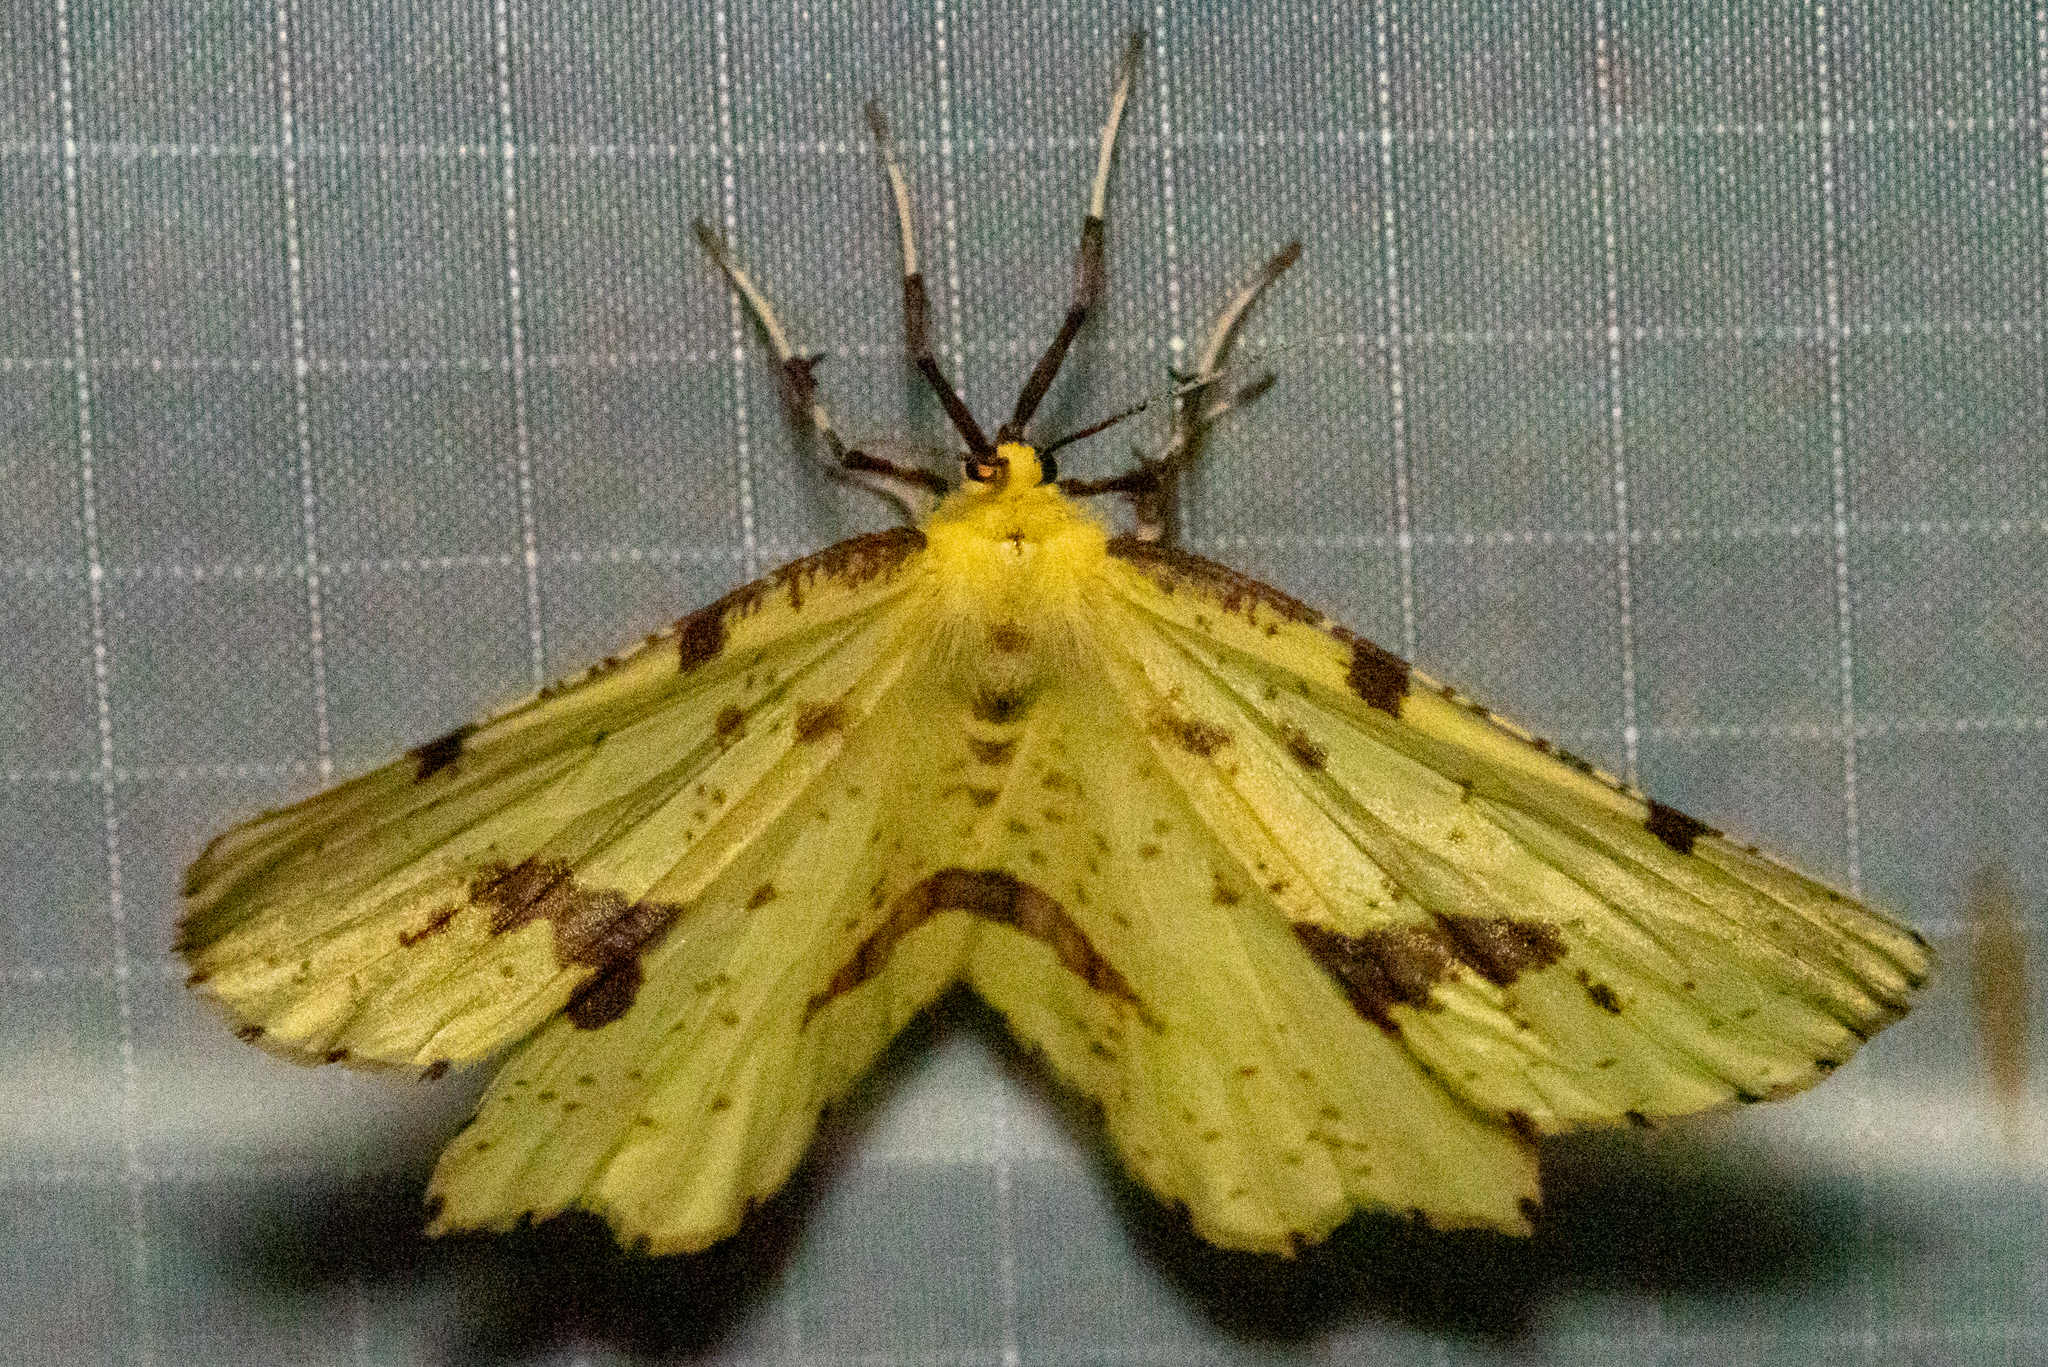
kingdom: Animalia
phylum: Arthropoda
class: Insecta
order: Lepidoptera
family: Geometridae
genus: Xanthotype
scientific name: Xanthotype
